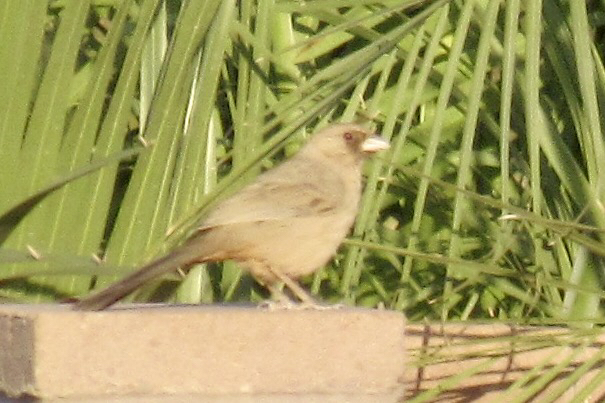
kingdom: Animalia
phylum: Chordata
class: Aves
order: Passeriformes
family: Passerellidae
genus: Melozone
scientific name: Melozone aberti
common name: Abert's towhee
